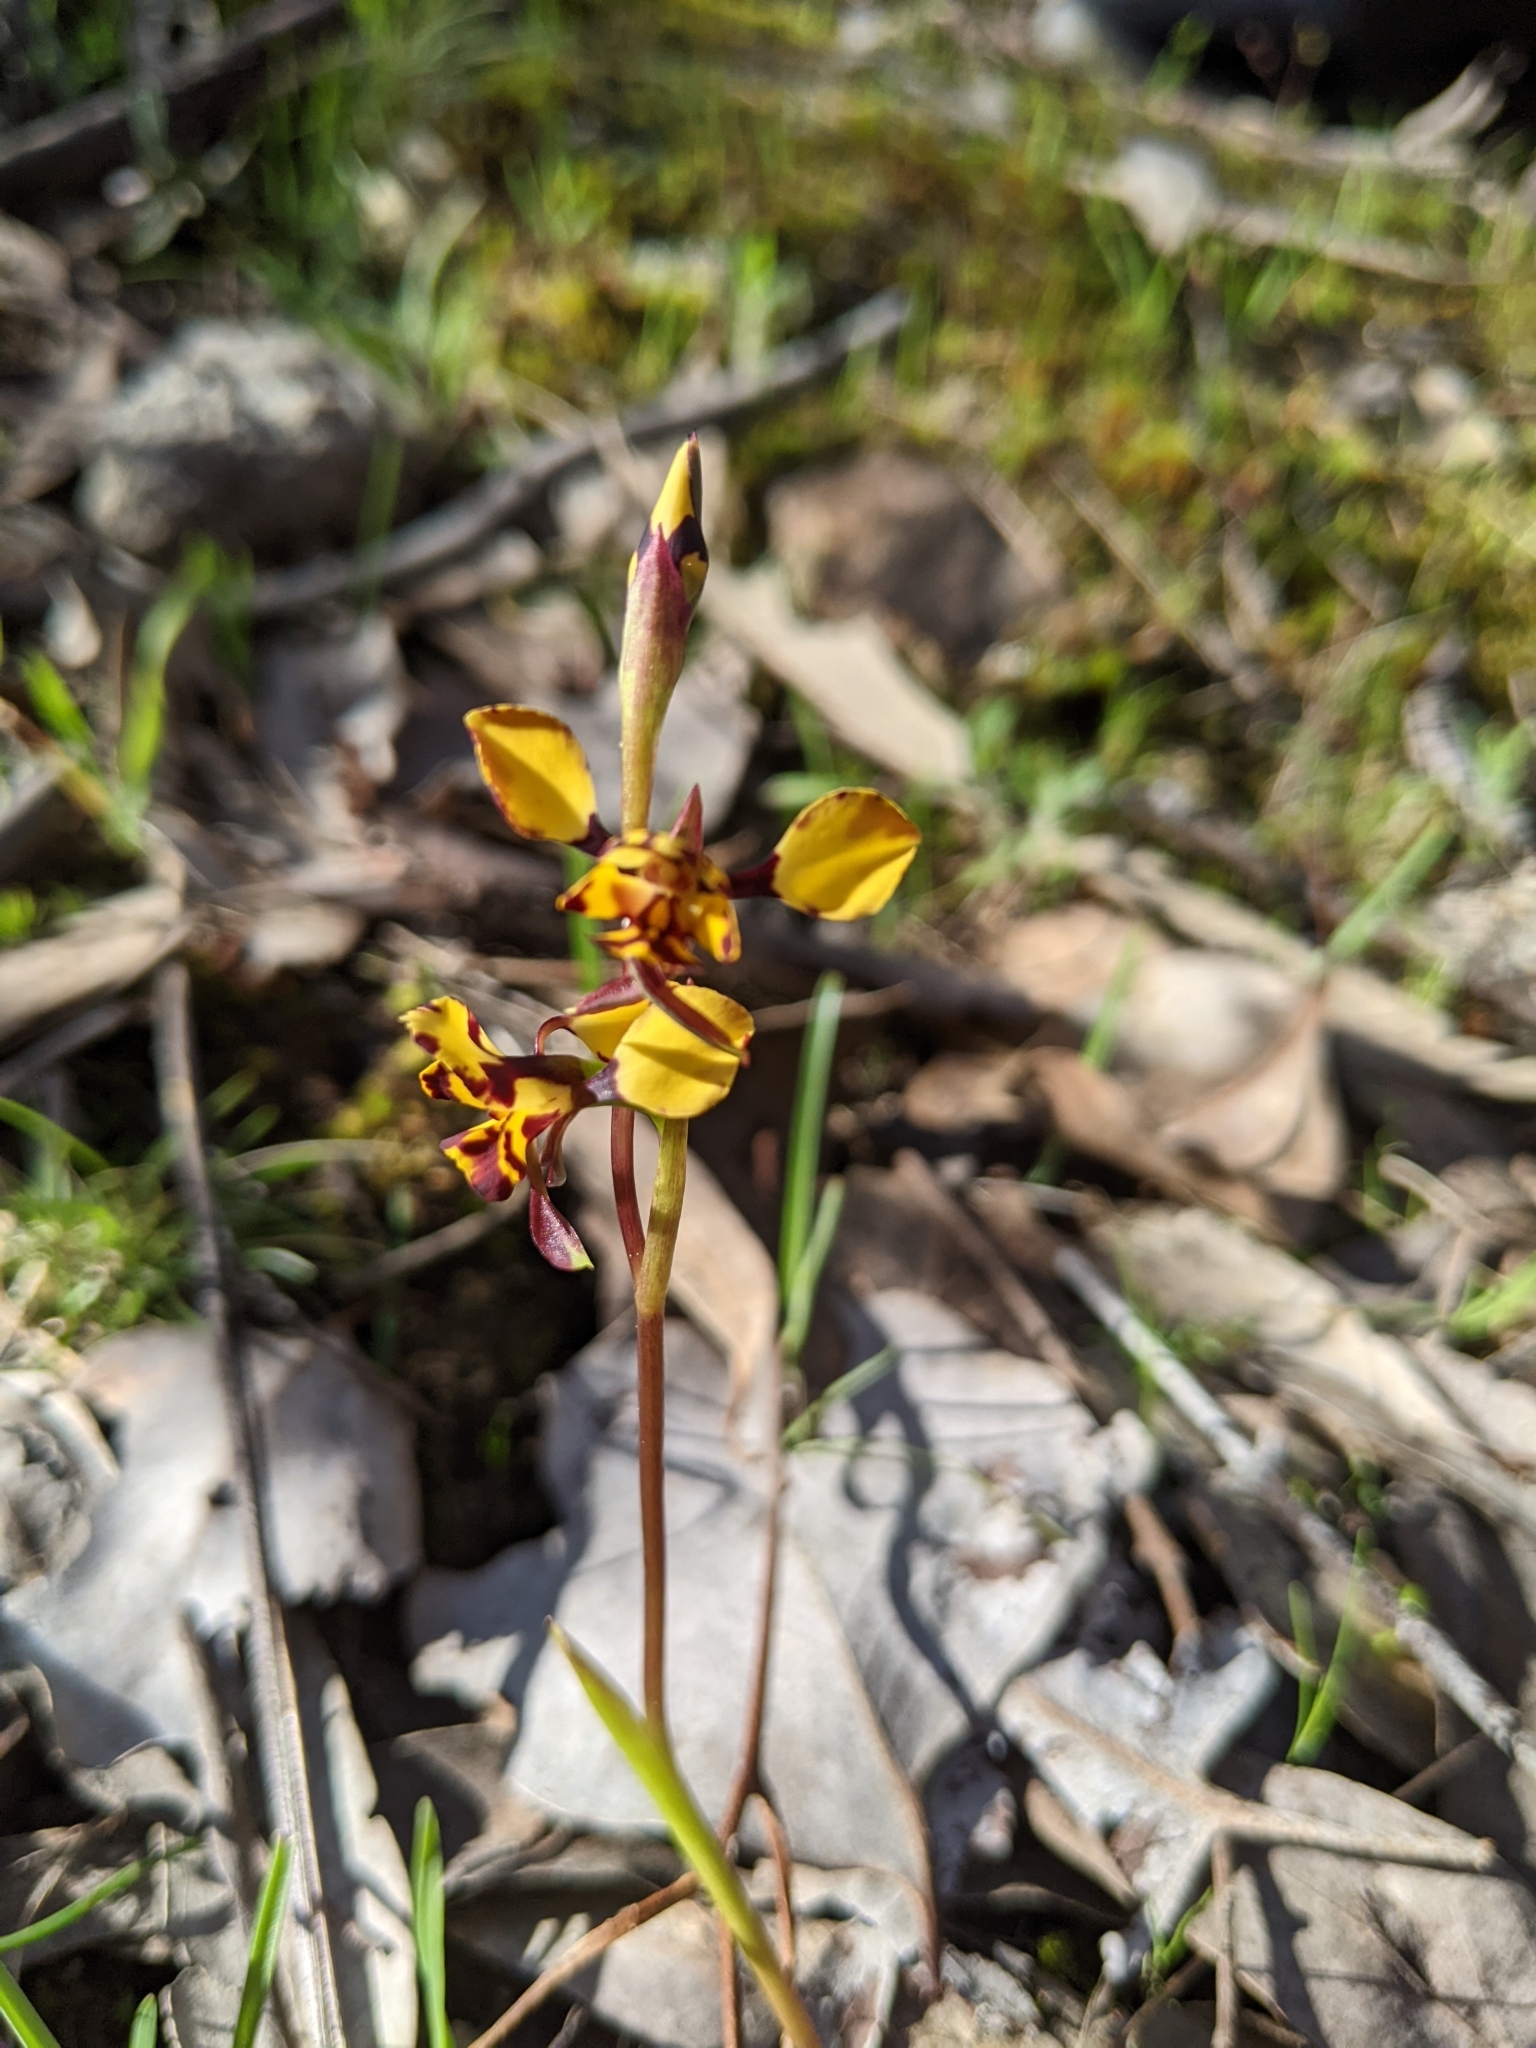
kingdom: Plantae
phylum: Tracheophyta
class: Liliopsida
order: Asparagales
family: Orchidaceae
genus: Diuris
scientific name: Diuris pardina
